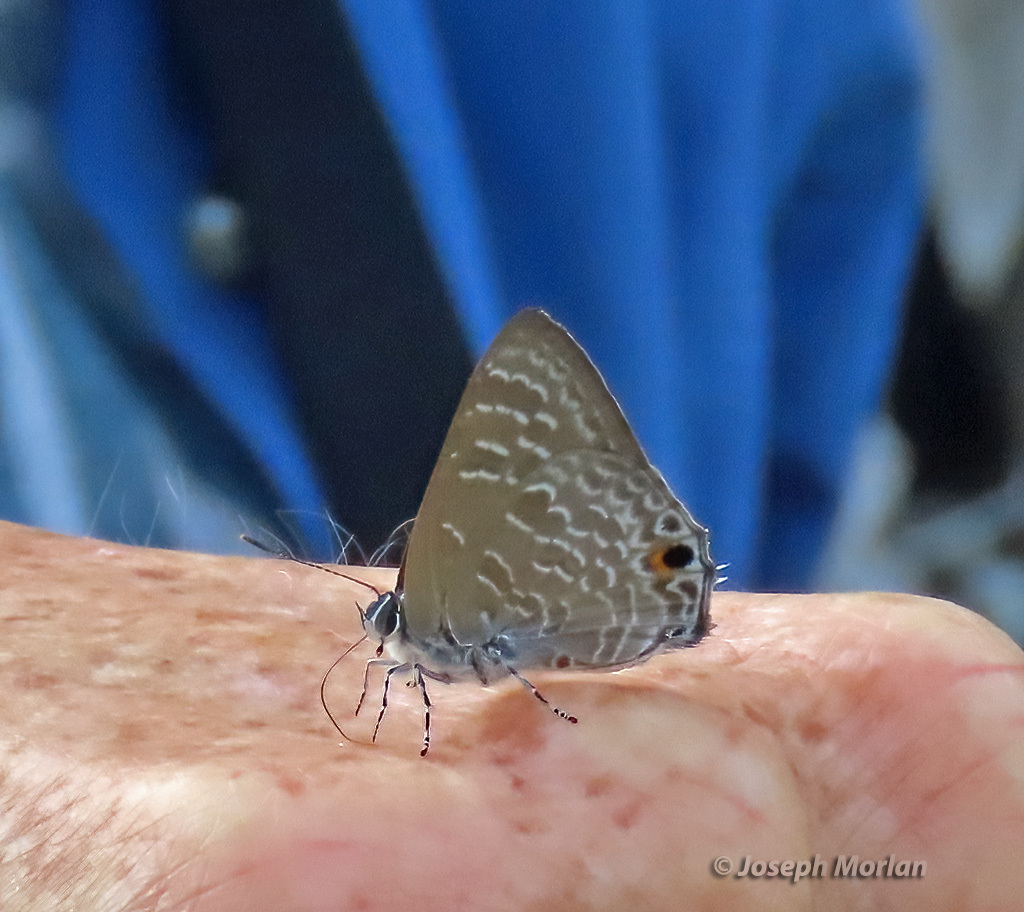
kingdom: Animalia
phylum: Arthropoda
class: Insecta
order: Lepidoptera
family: Lycaenidae
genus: Anthene
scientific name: Anthene licates
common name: White ciliate blue
